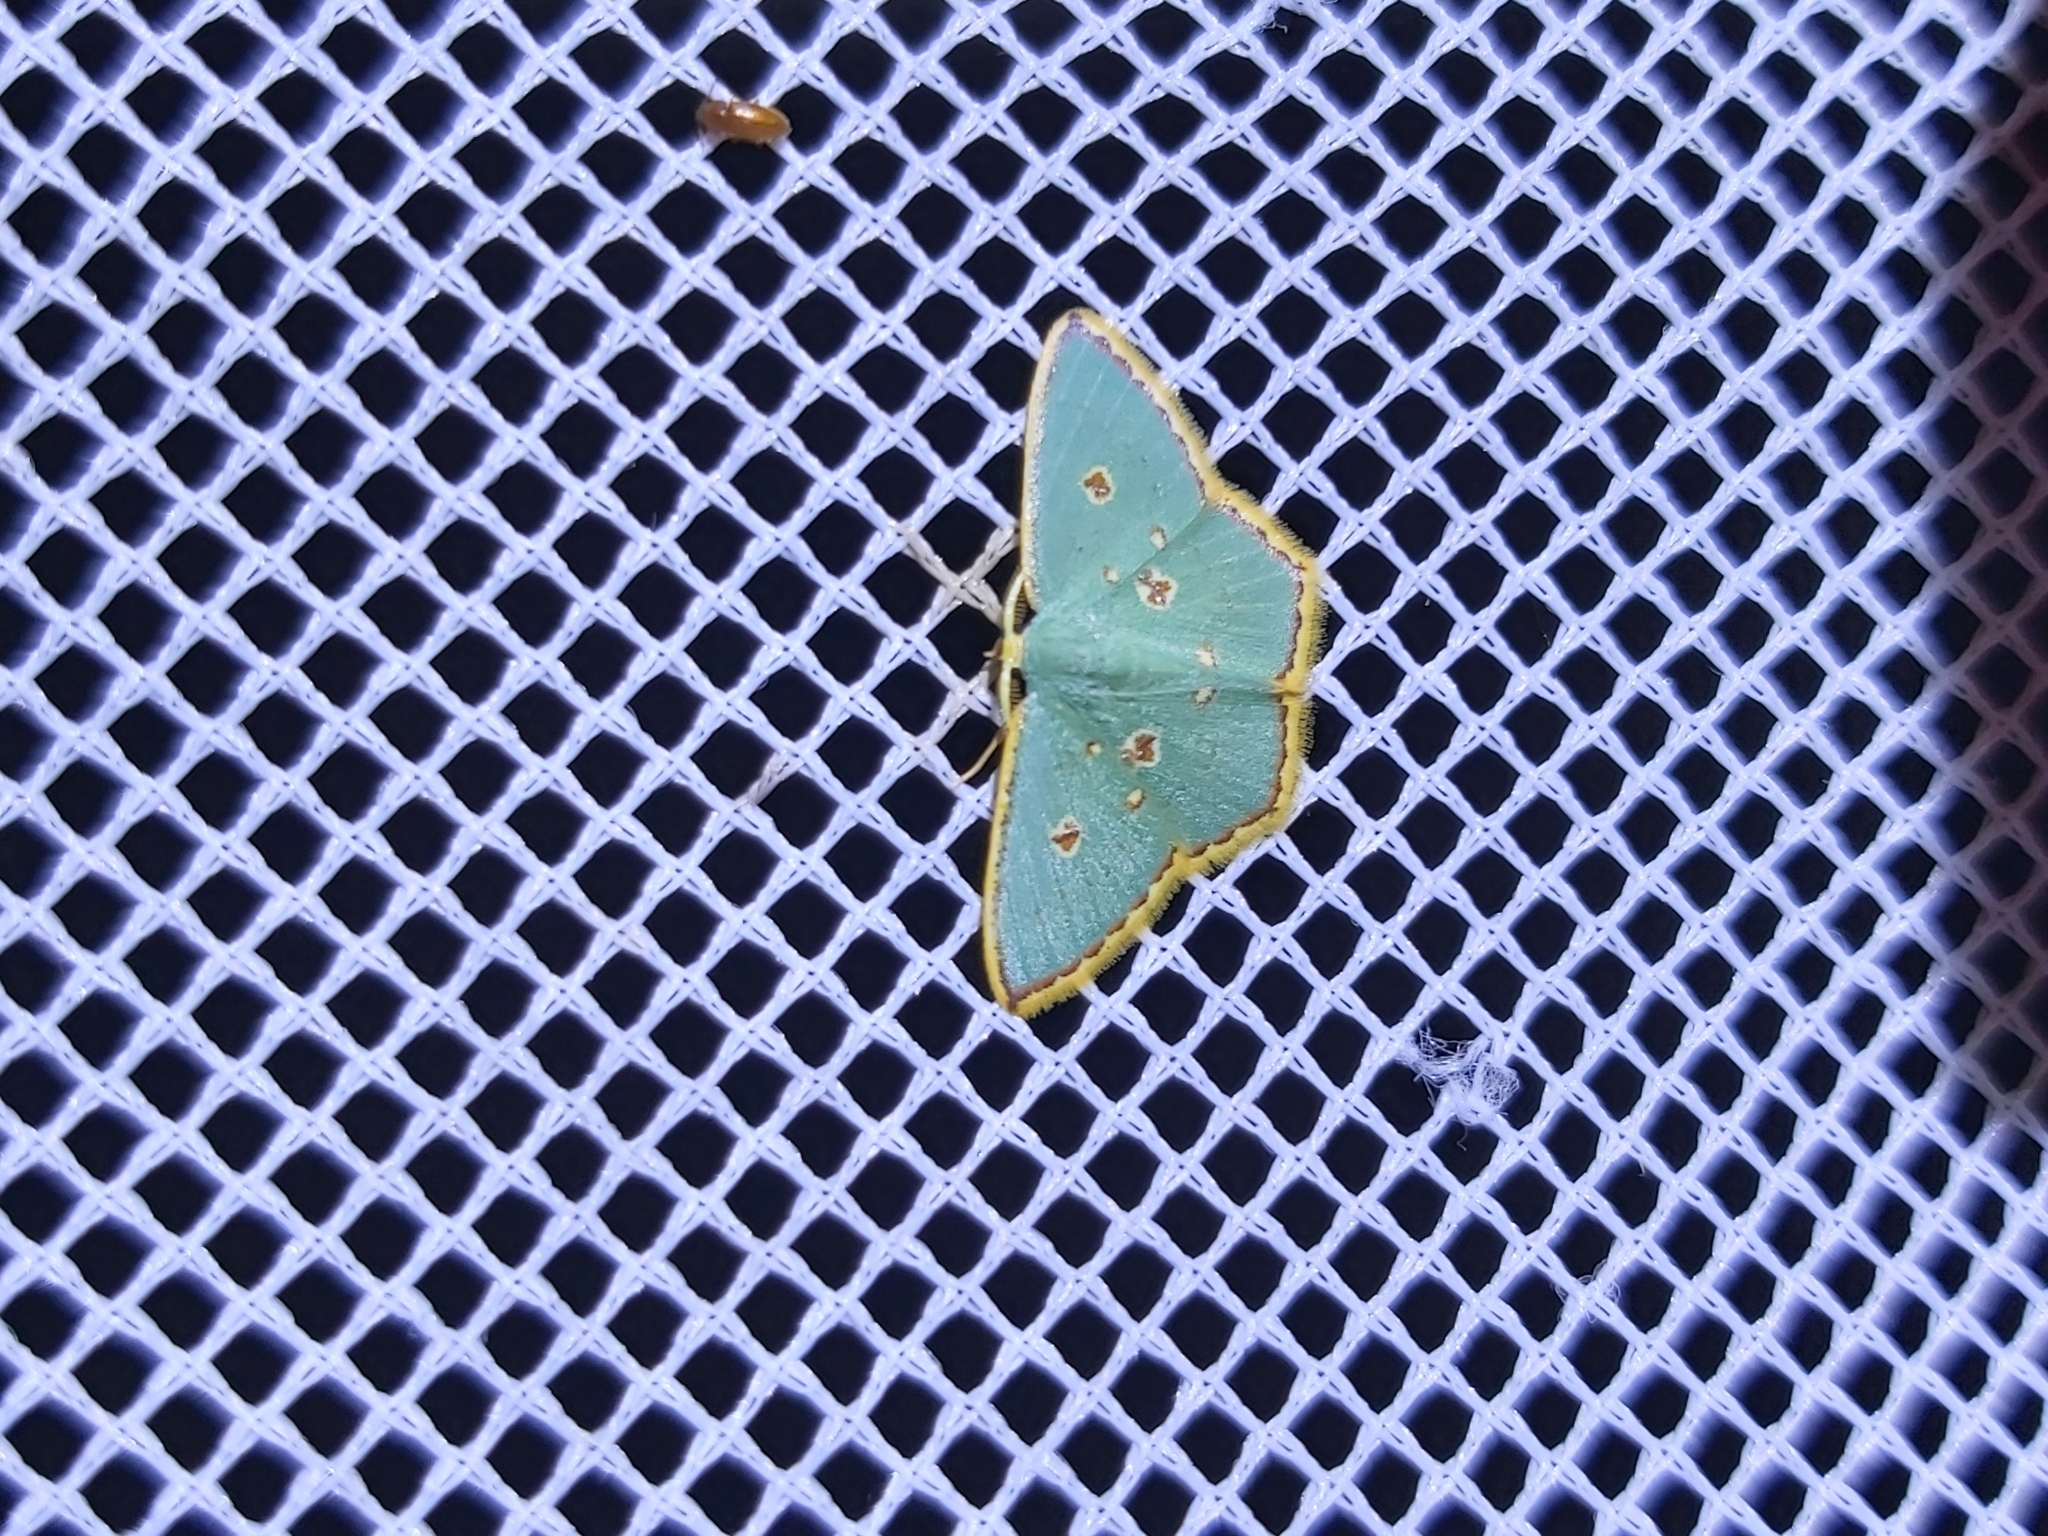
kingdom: Animalia
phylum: Arthropoda
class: Insecta
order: Lepidoptera
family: Geometridae
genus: Comostola
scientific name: Comostola laesaria
